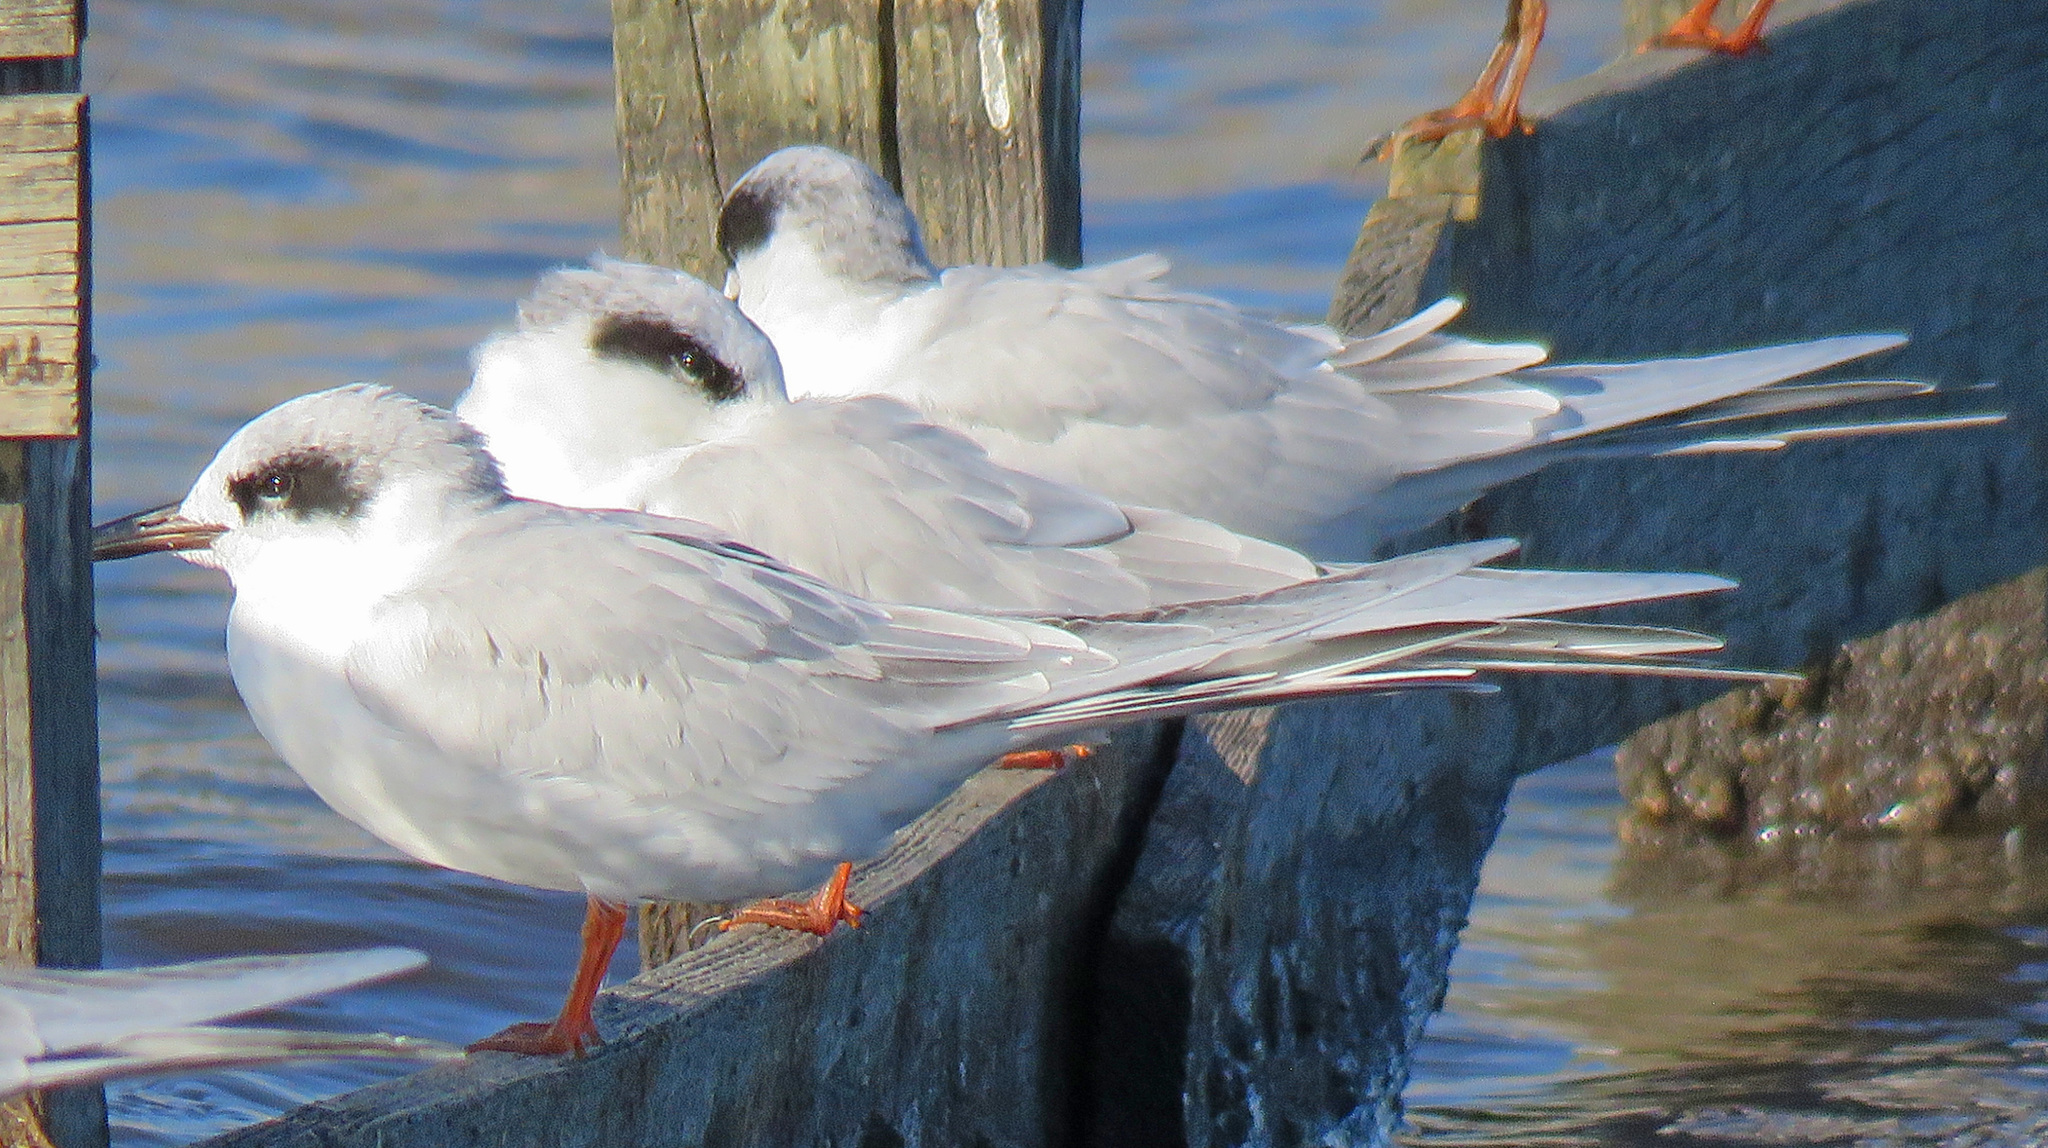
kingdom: Animalia
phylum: Chordata
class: Aves
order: Charadriiformes
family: Laridae
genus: Sterna
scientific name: Sterna forsteri
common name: Forster's tern
